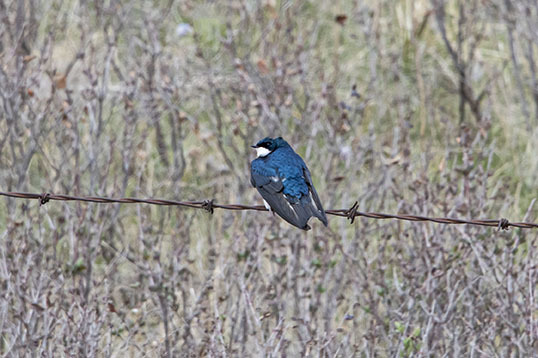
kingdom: Animalia
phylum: Chordata
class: Aves
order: Passeriformes
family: Hirundinidae
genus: Tachycineta
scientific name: Tachycineta bicolor
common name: Tree swallow
